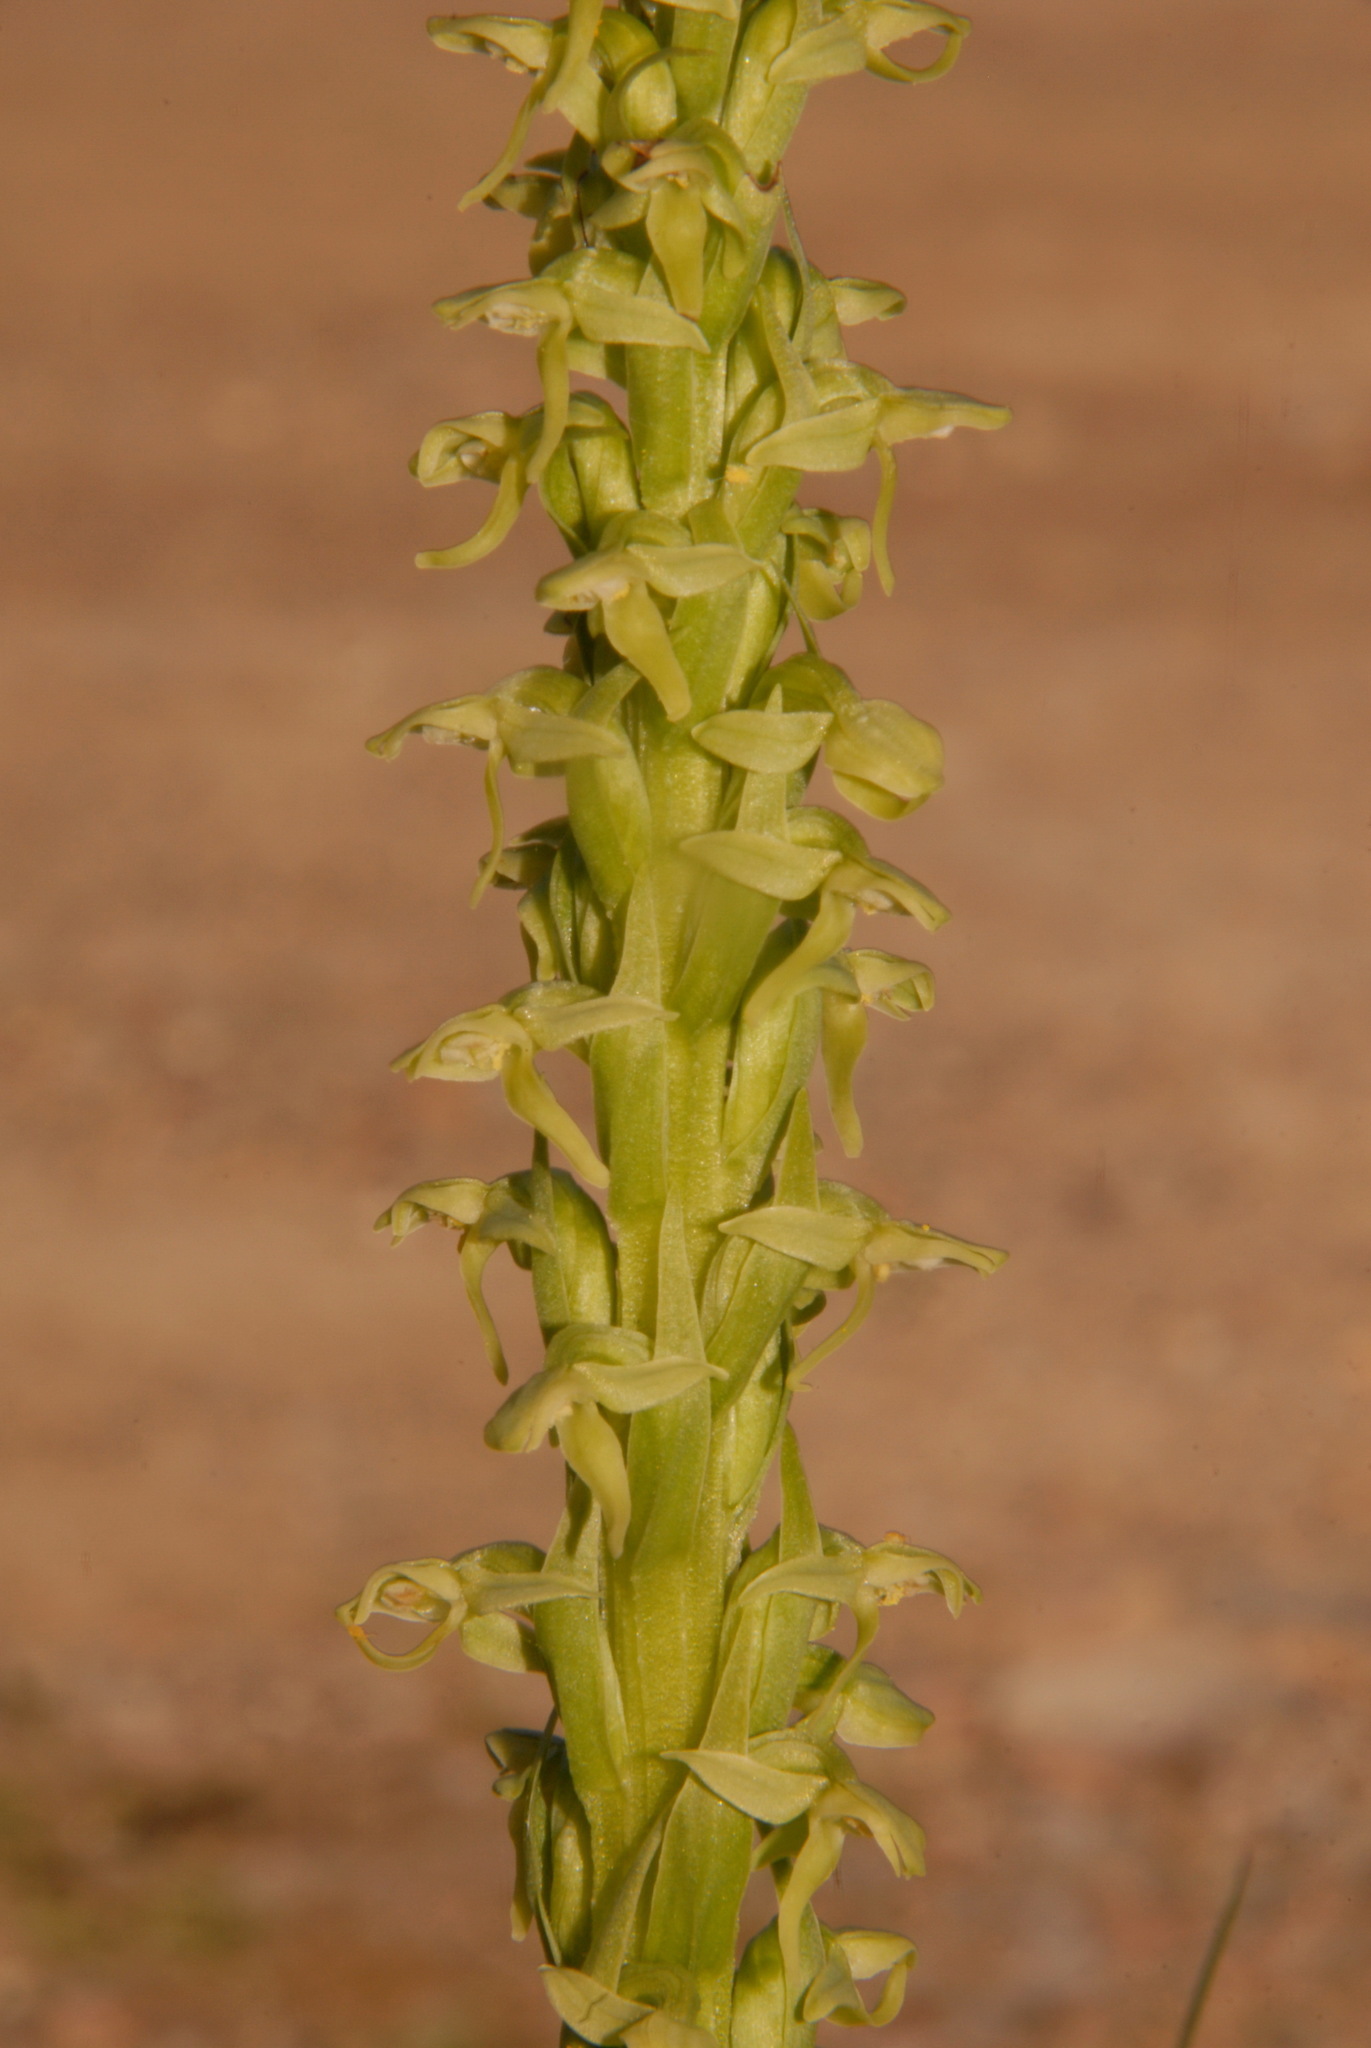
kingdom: Plantae
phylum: Tracheophyta
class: Liliopsida
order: Asparagales
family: Orchidaceae
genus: Platanthera
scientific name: Platanthera huronensis
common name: Fragrant green orchid
